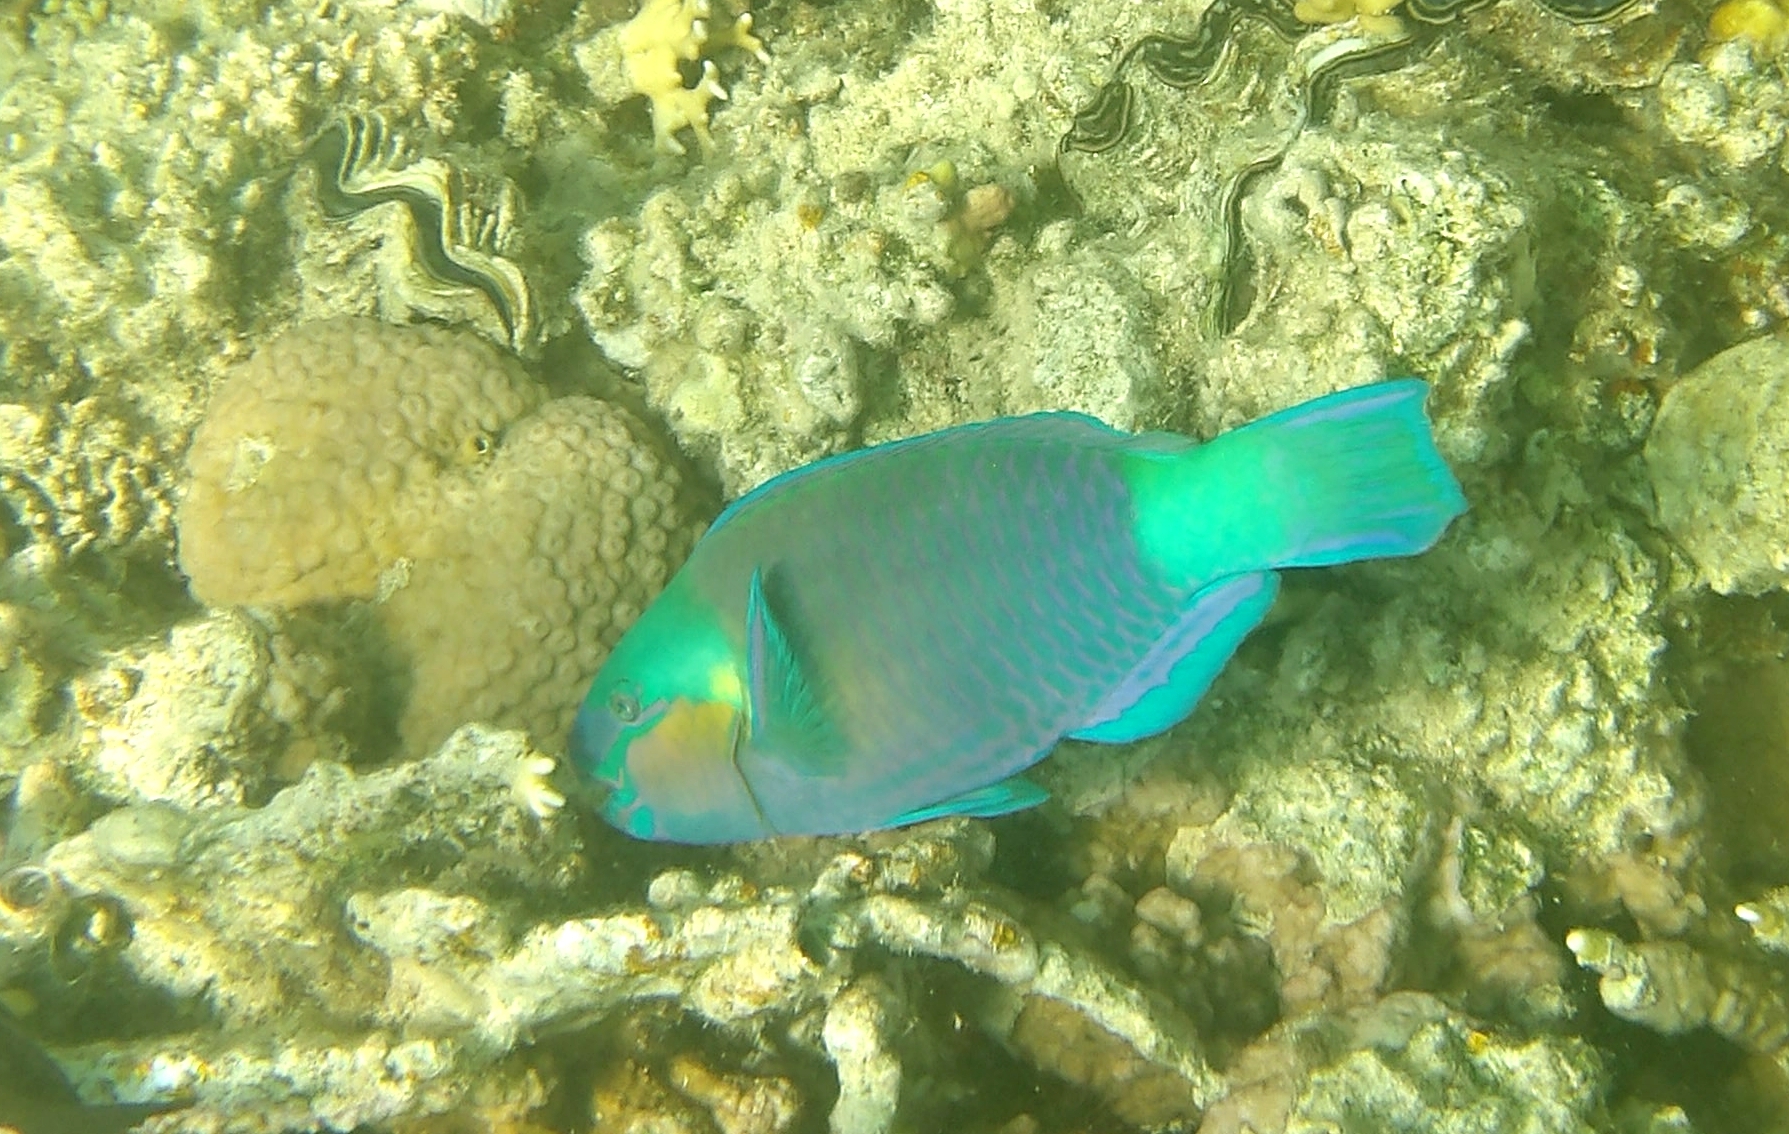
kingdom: Animalia
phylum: Chordata
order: Perciformes
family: Scaridae
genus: Chlorurus
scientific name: Chlorurus sordidus
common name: Bullethead parrotfish
